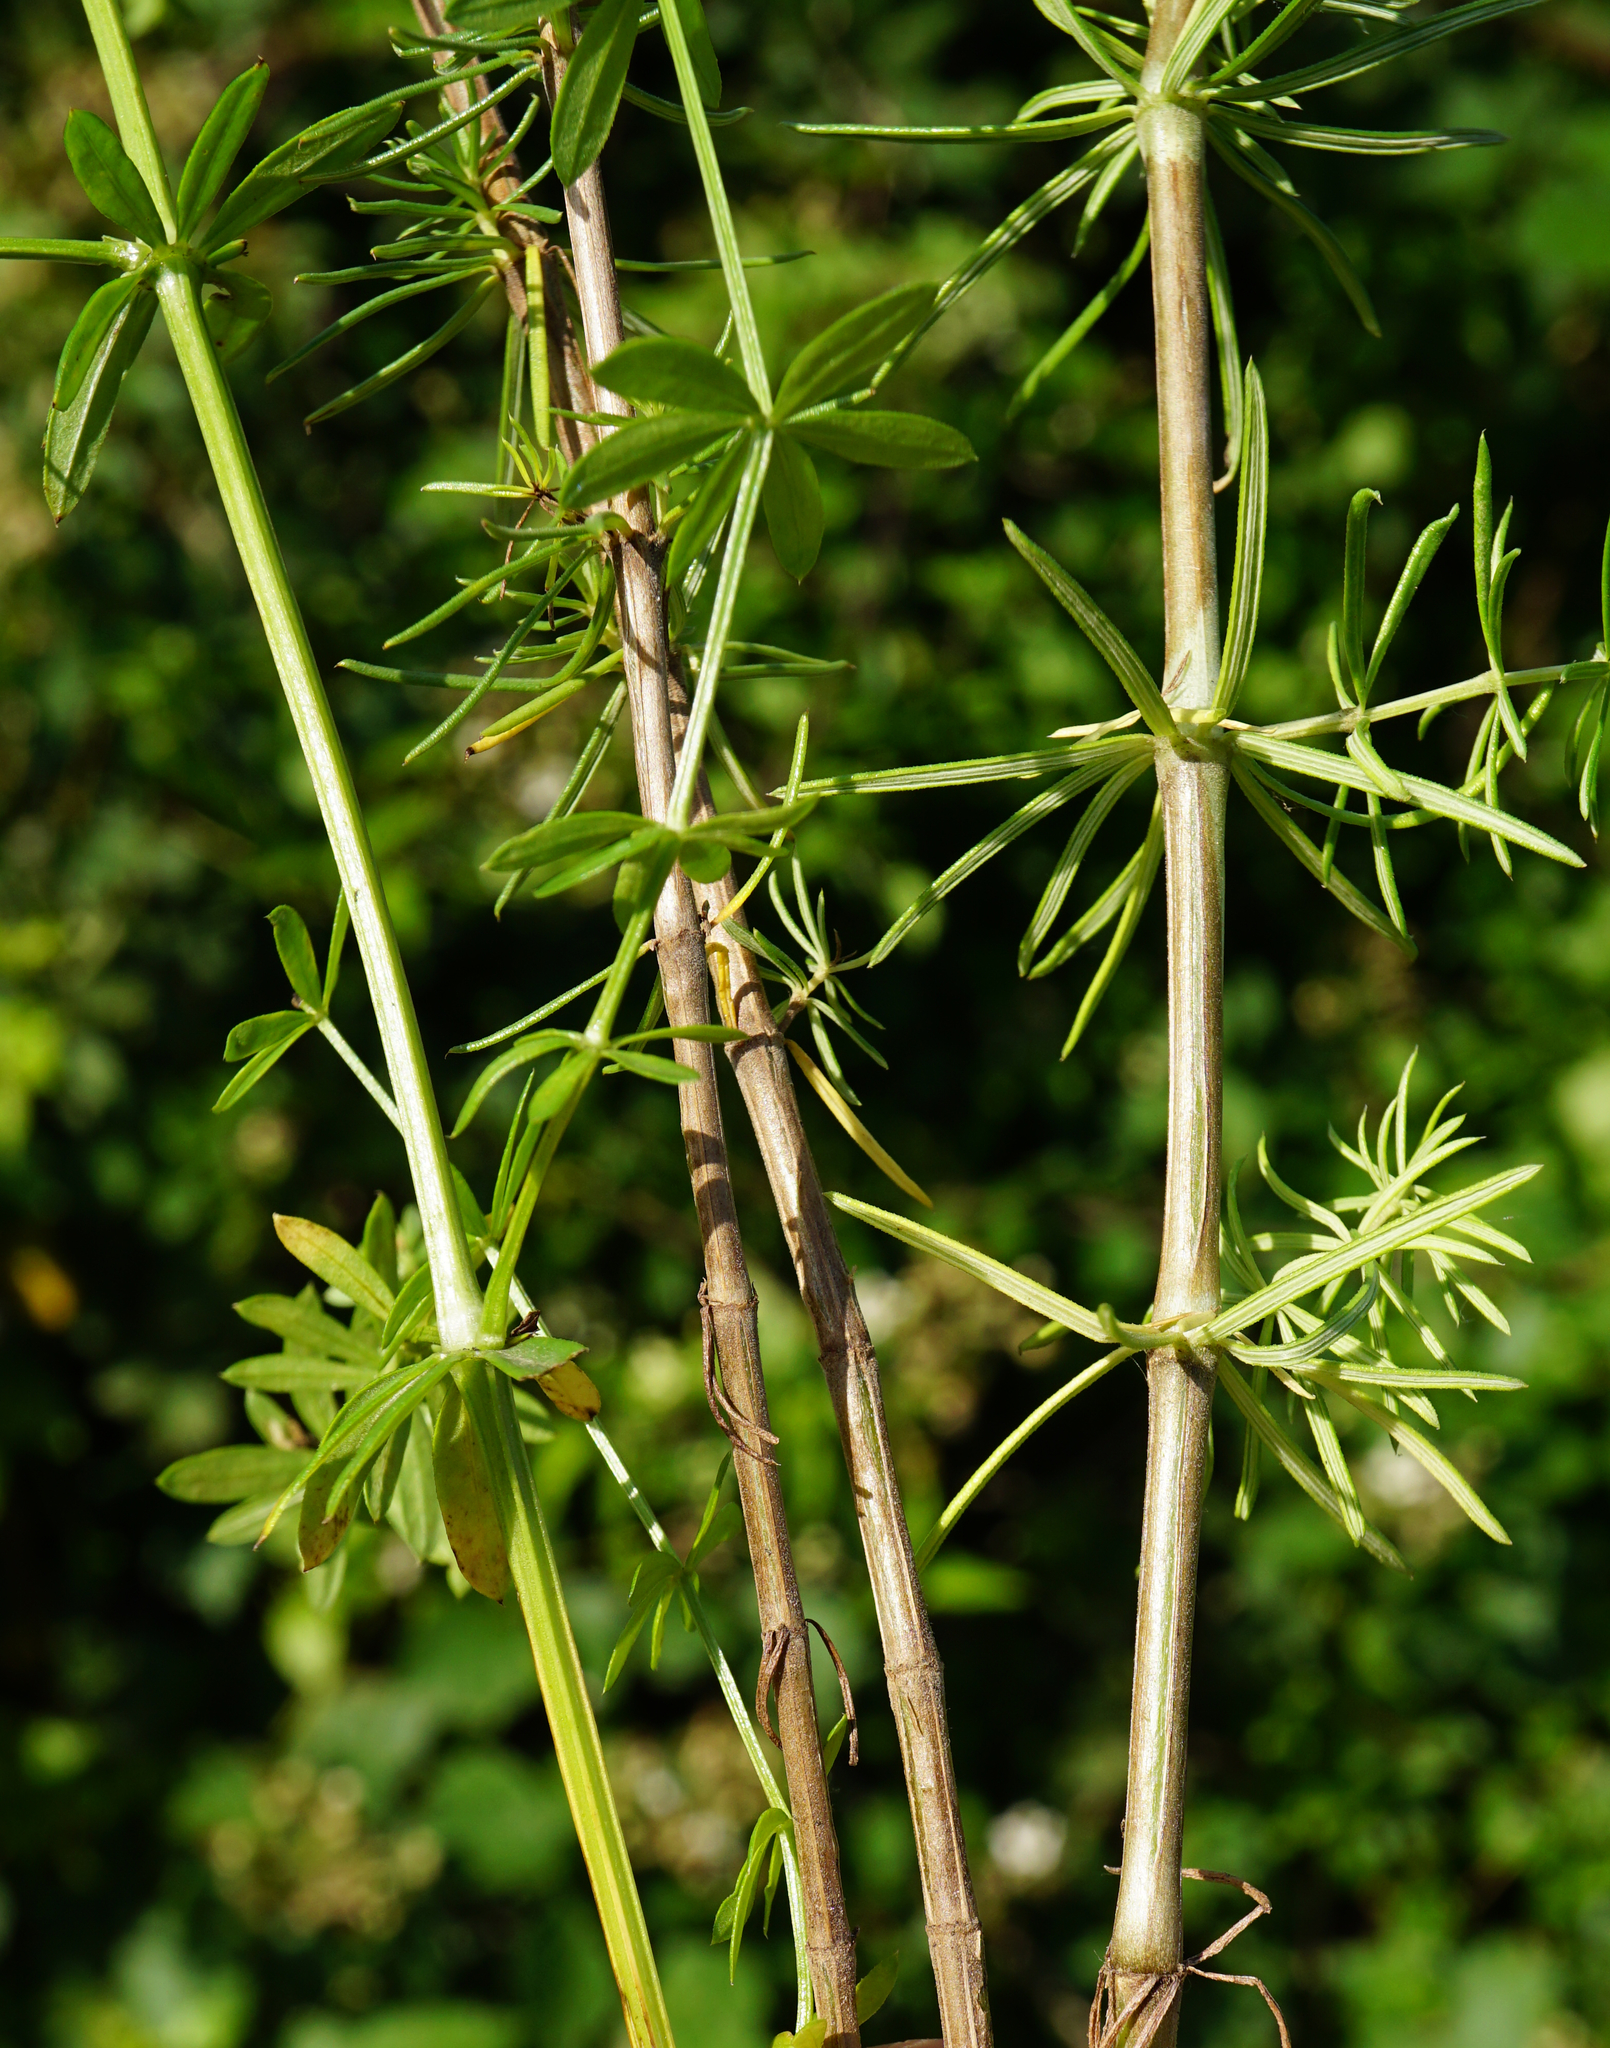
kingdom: Plantae
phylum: Tracheophyta
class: Magnoliopsida
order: Gentianales
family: Rubiaceae
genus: Galium
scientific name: Galium pomeranicum
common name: Bedstraw
